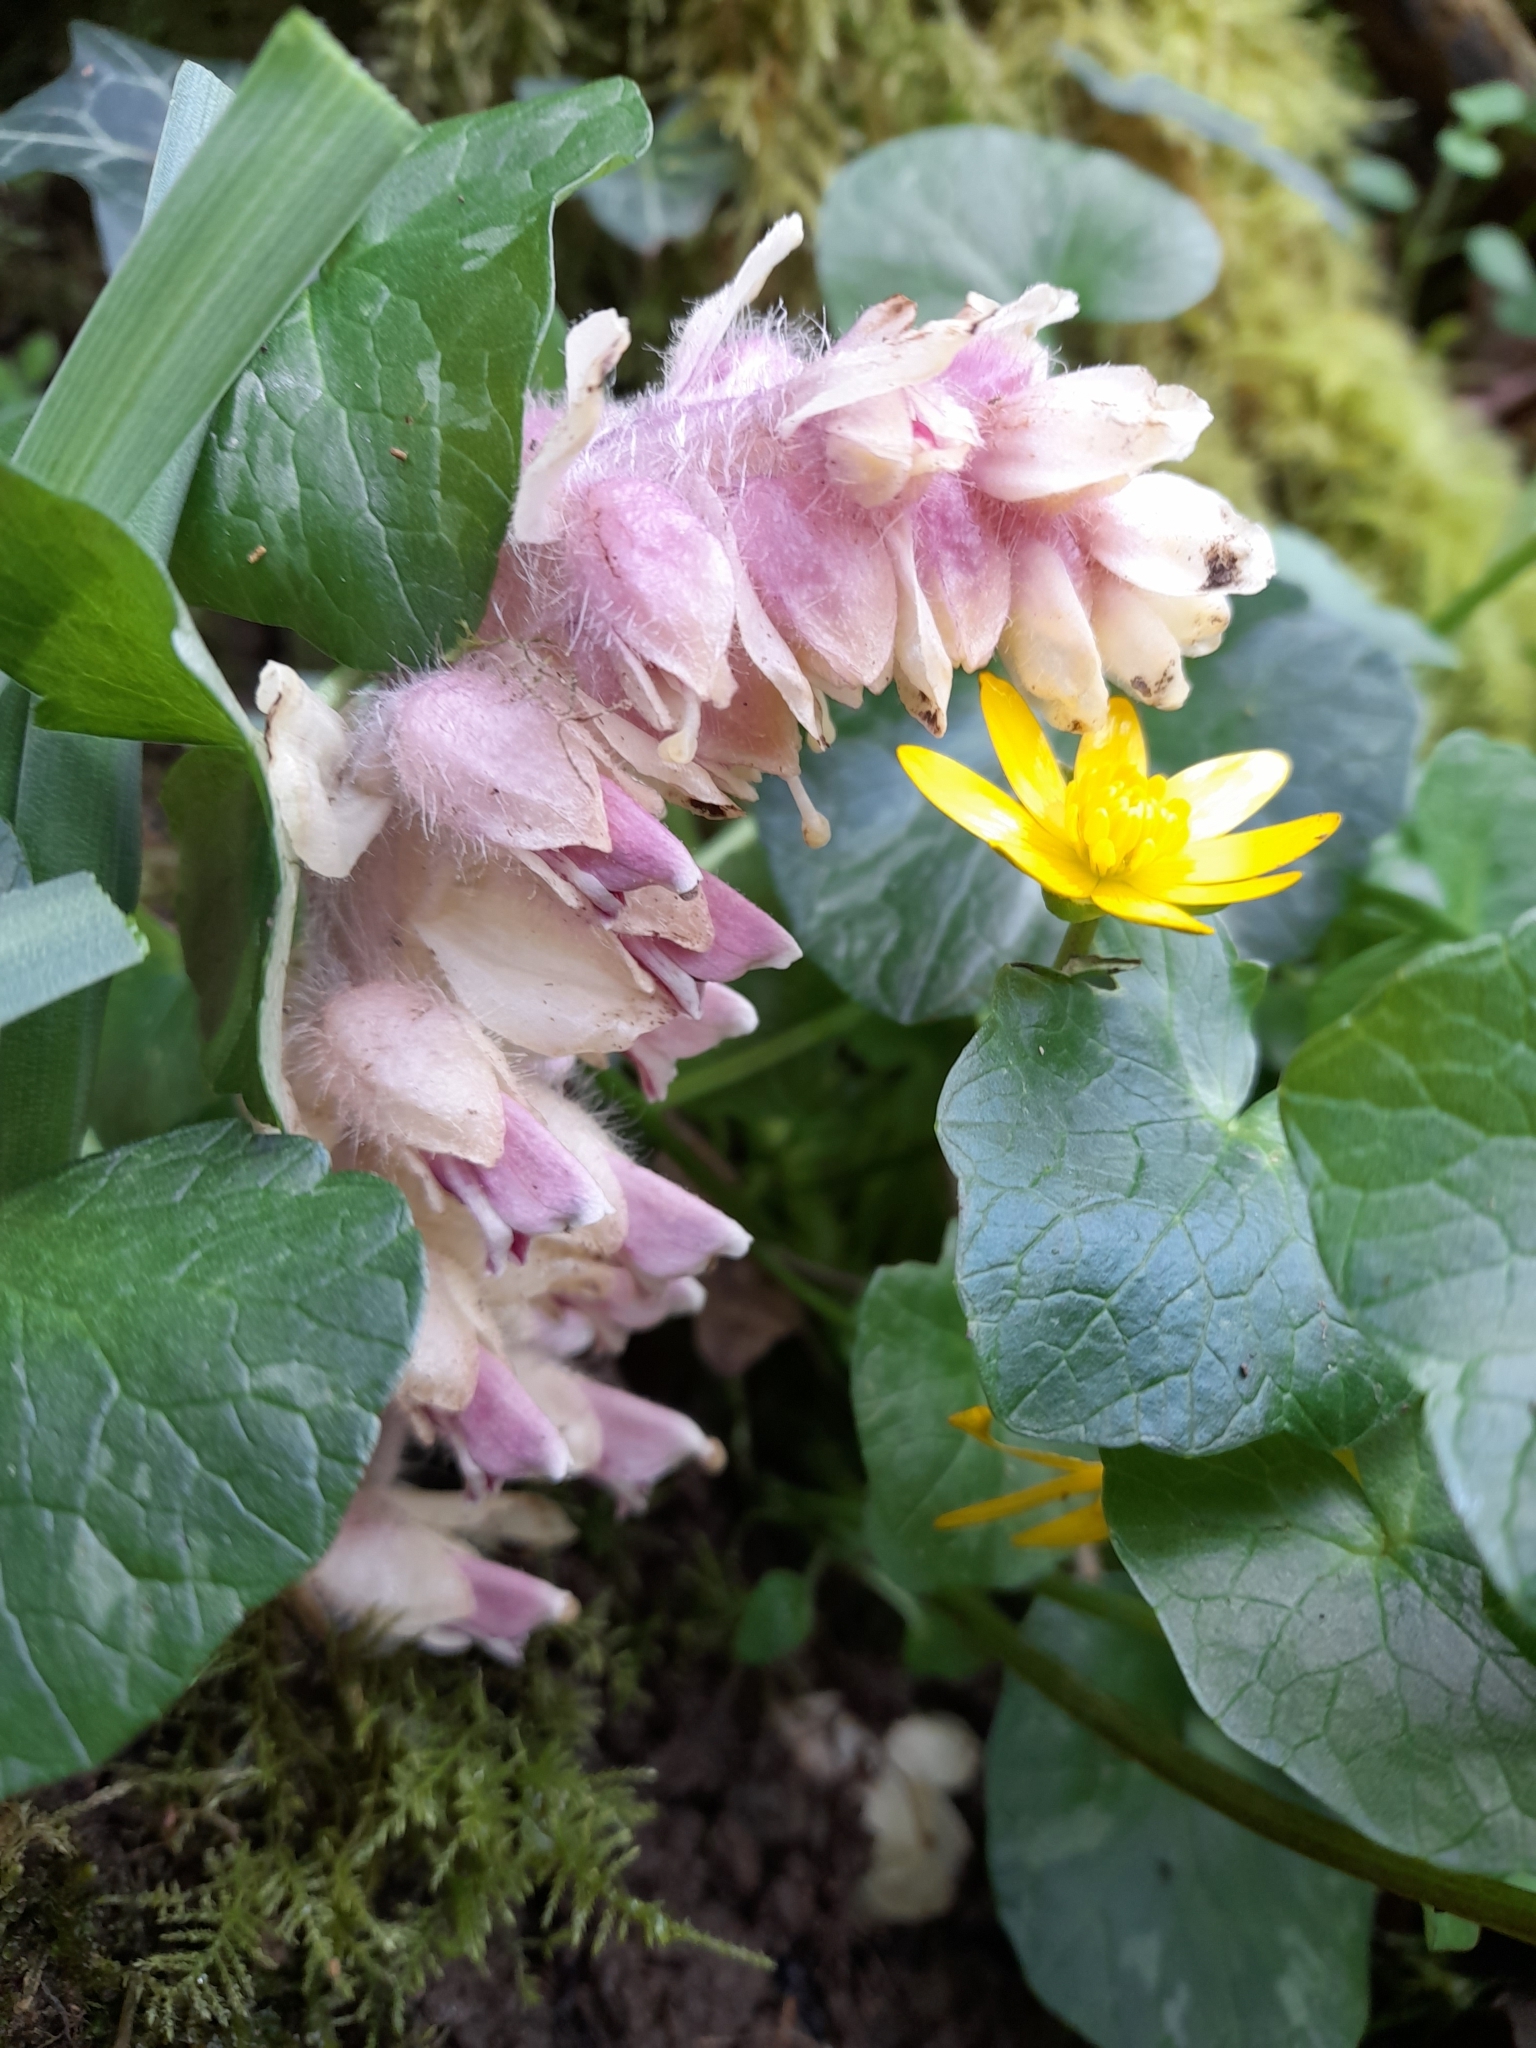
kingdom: Plantae
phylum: Tracheophyta
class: Magnoliopsida
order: Lamiales
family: Orobanchaceae
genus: Lathraea
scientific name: Lathraea squamaria
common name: Toothwort
